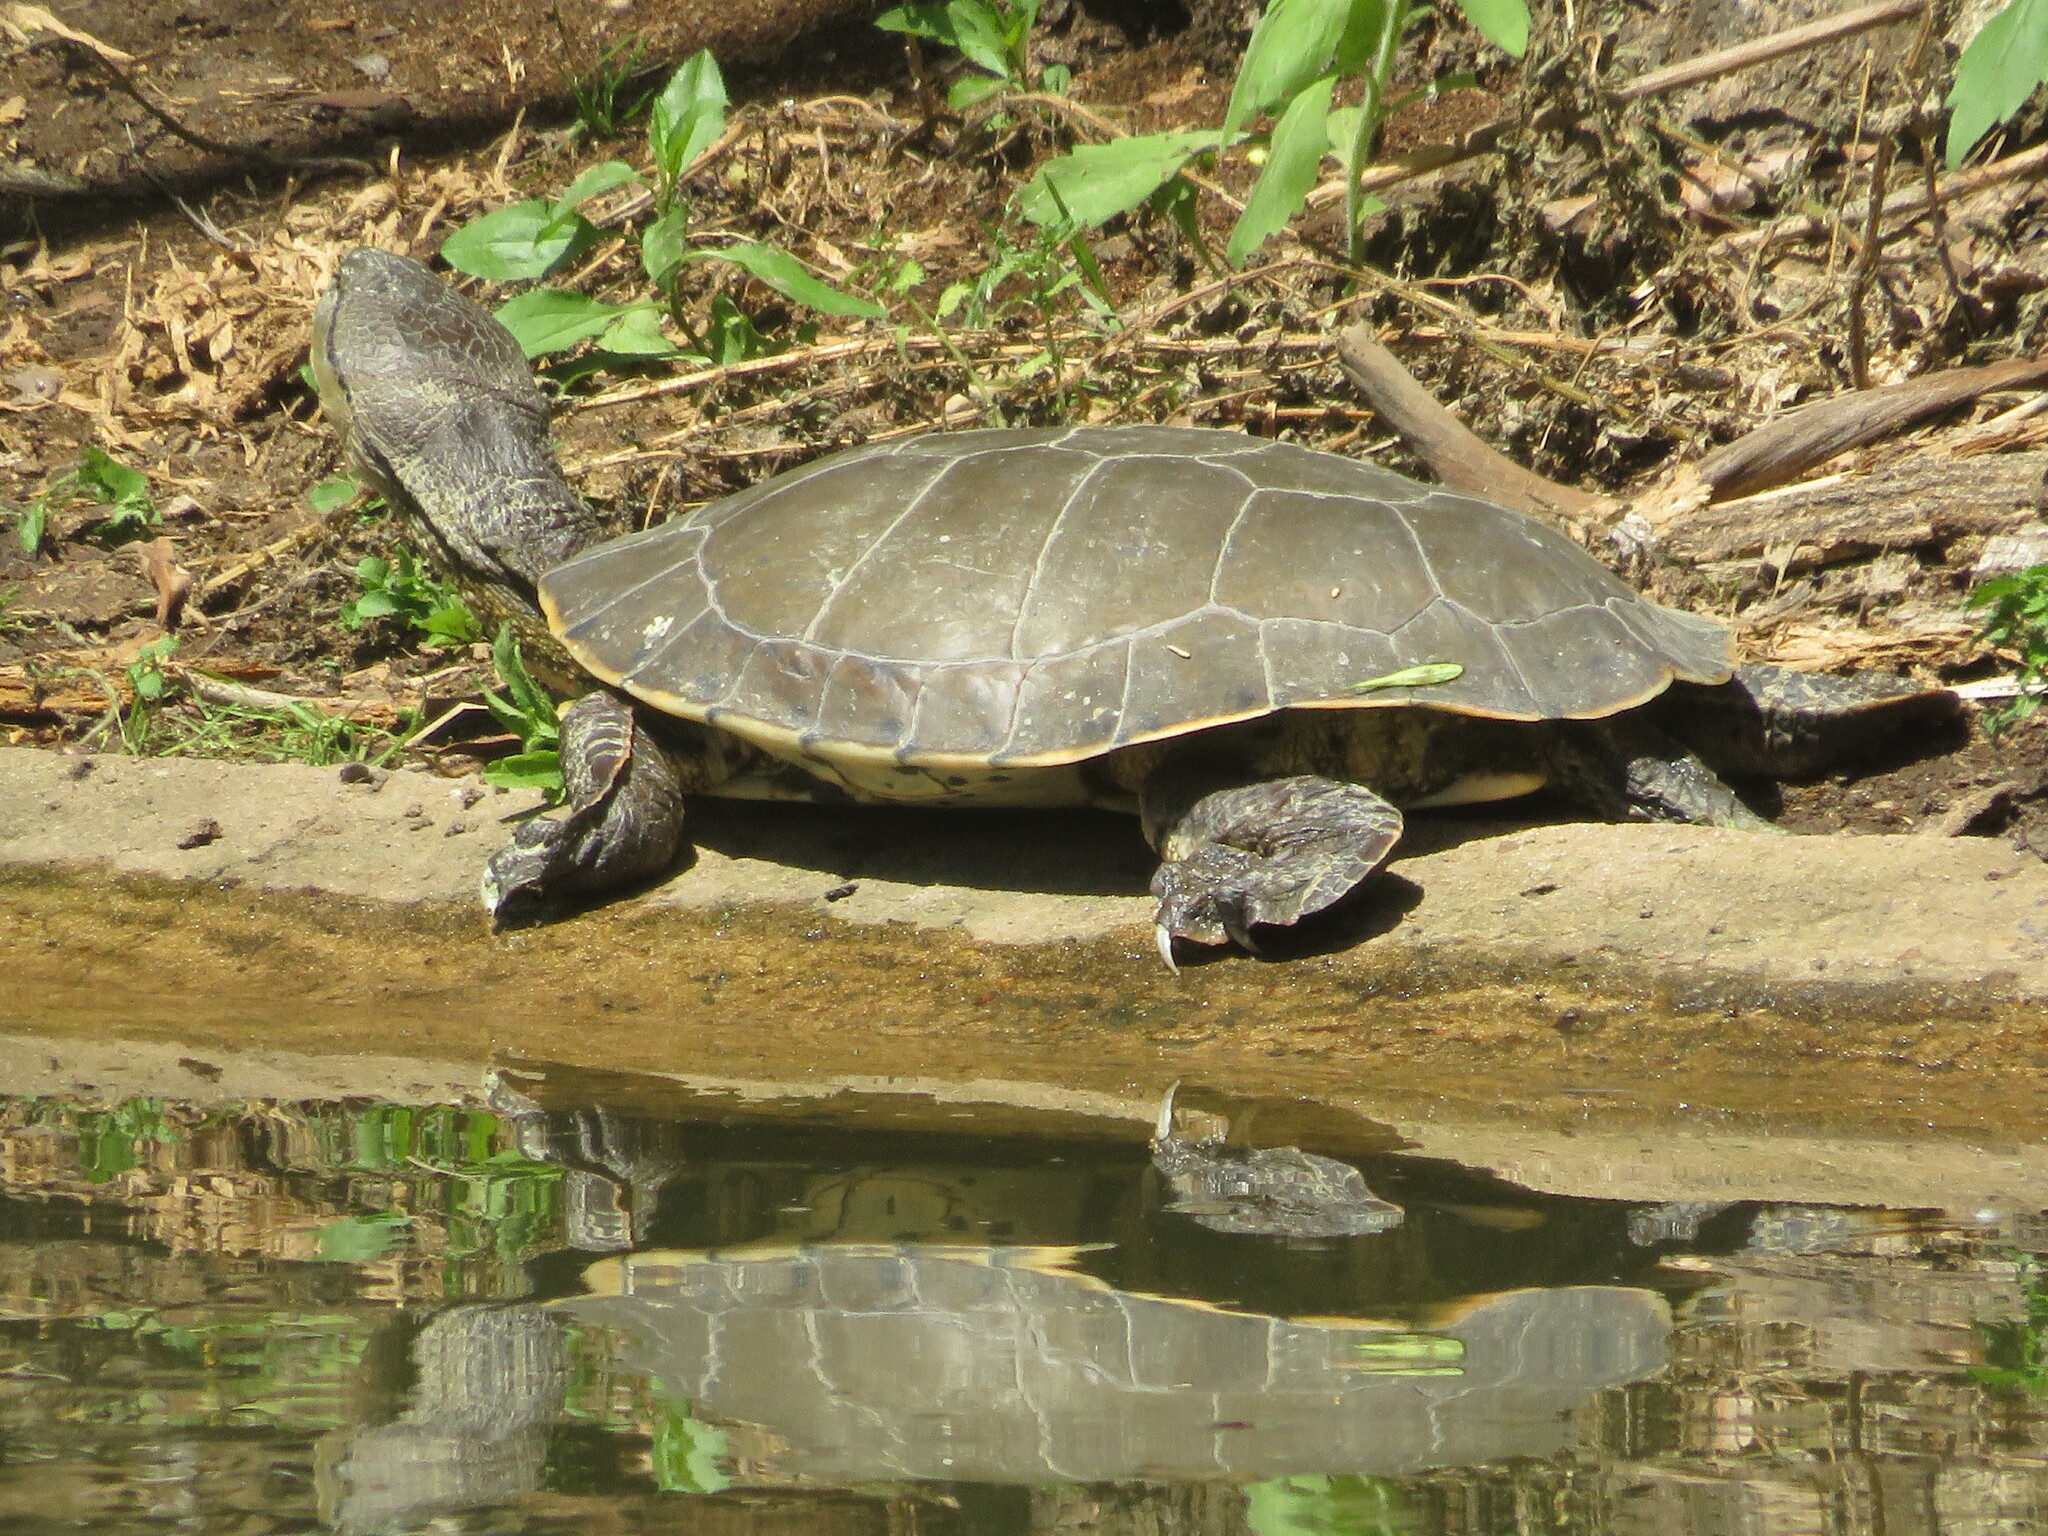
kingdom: Animalia
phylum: Chordata
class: Testudines
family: Chelidae
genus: Phrynops
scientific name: Phrynops hilarii
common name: Side-necked turtle of saint hillaire
